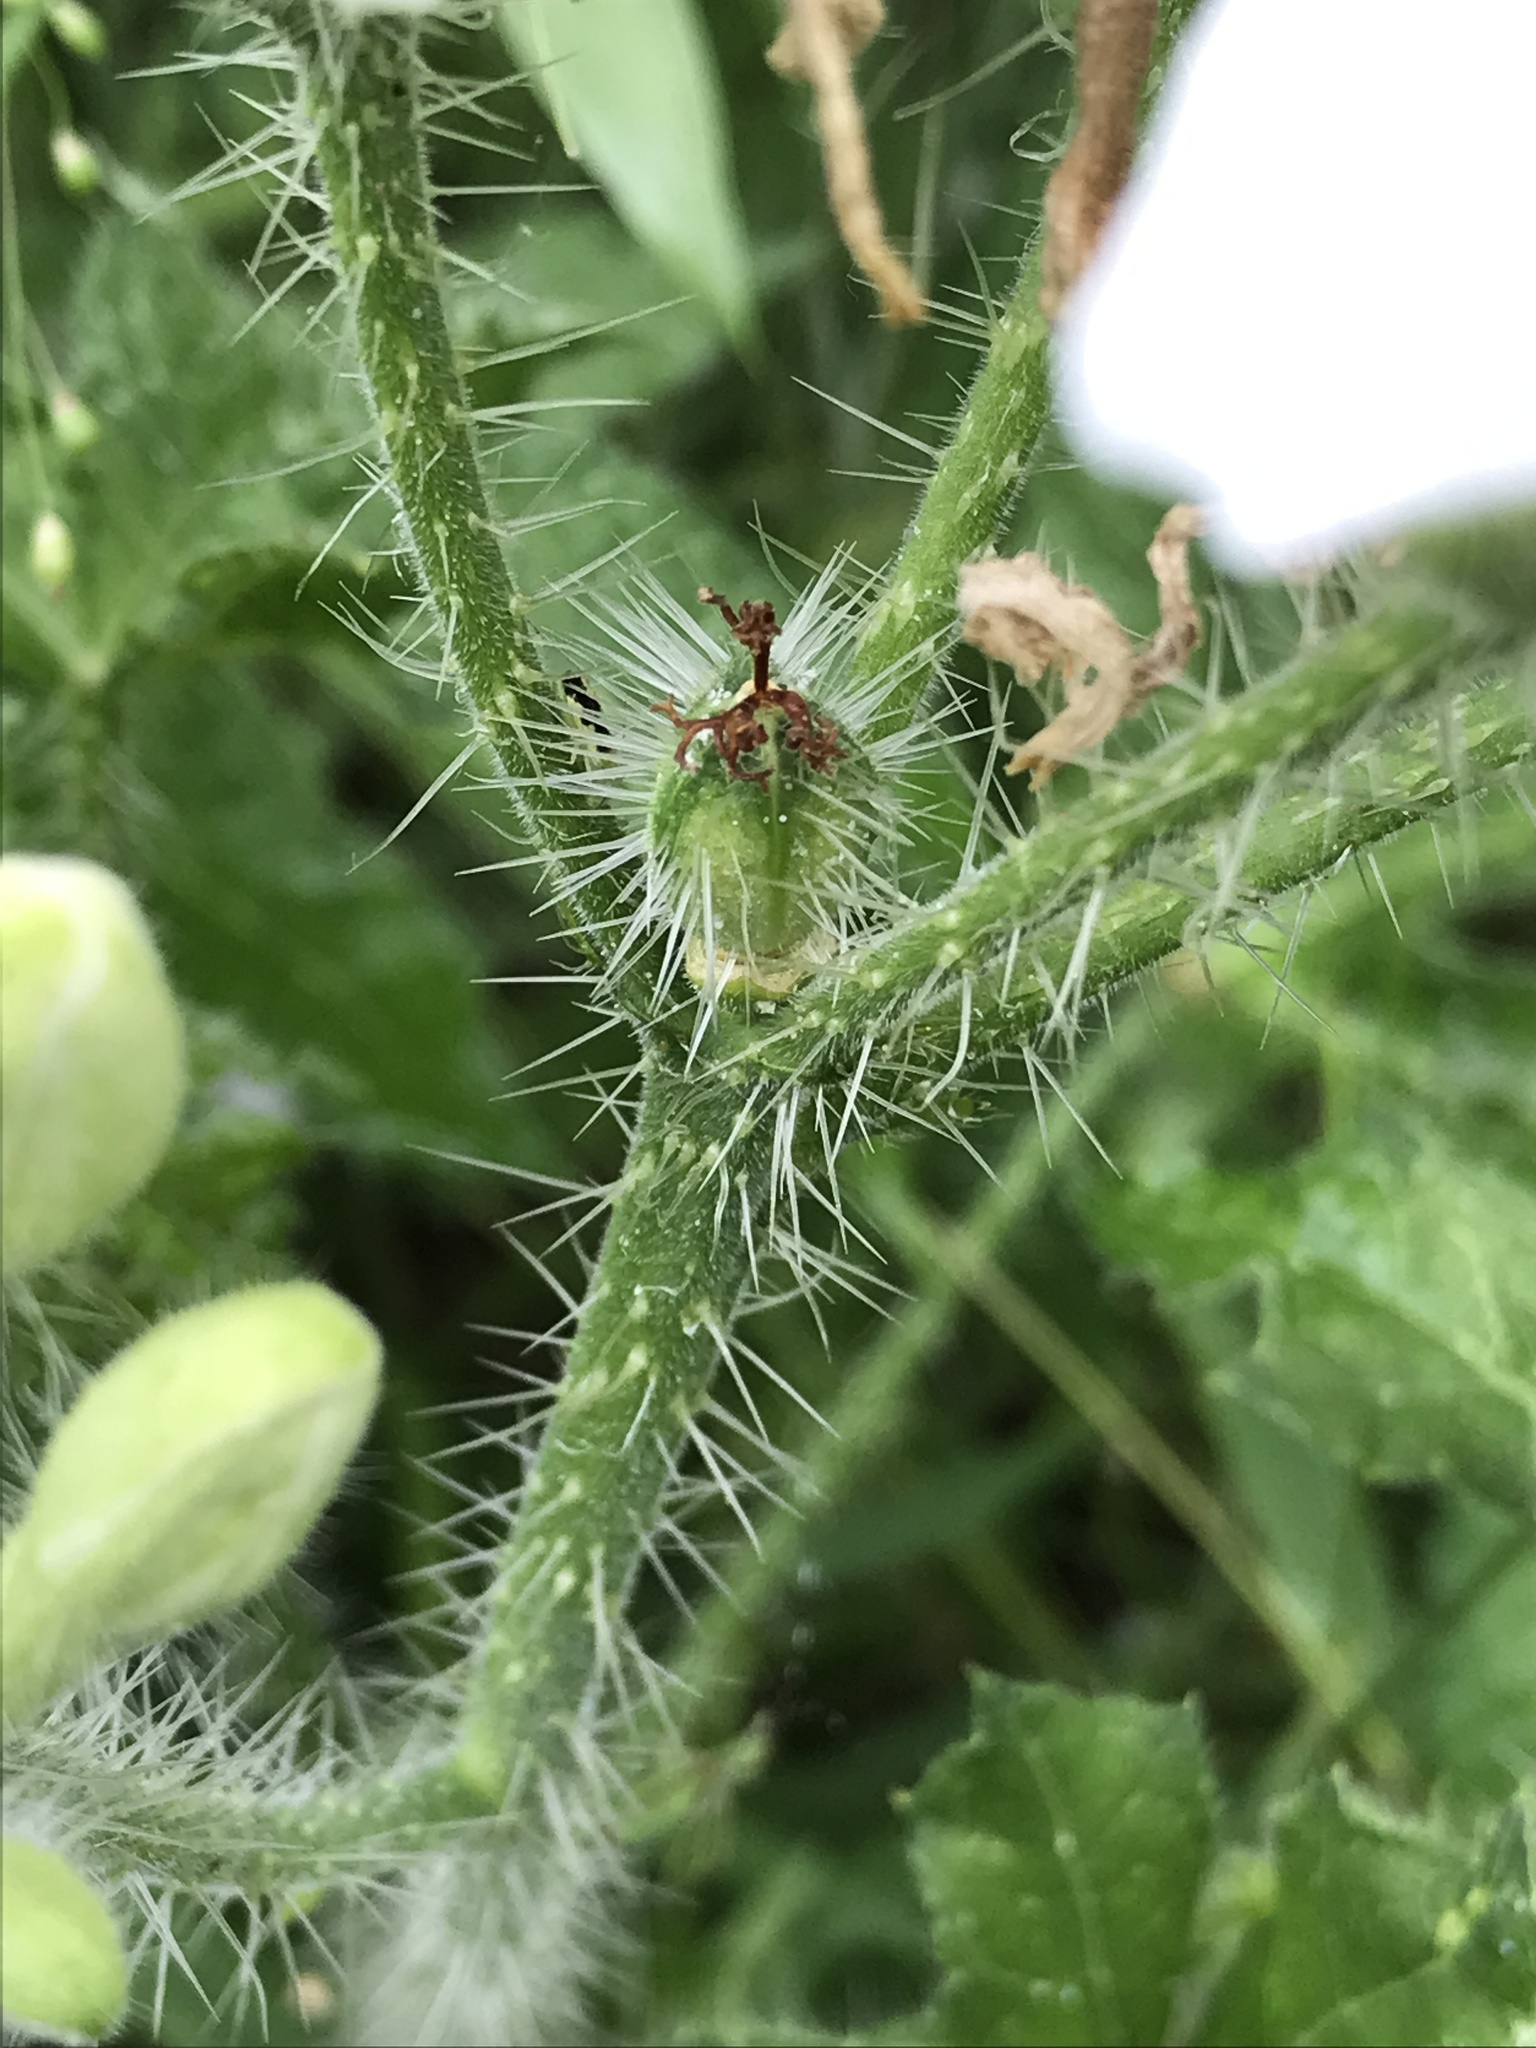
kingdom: Plantae
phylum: Tracheophyta
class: Magnoliopsida
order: Malpighiales
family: Euphorbiaceae
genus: Cnidoscolus
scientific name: Cnidoscolus texanus
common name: Texas bull-nettle
